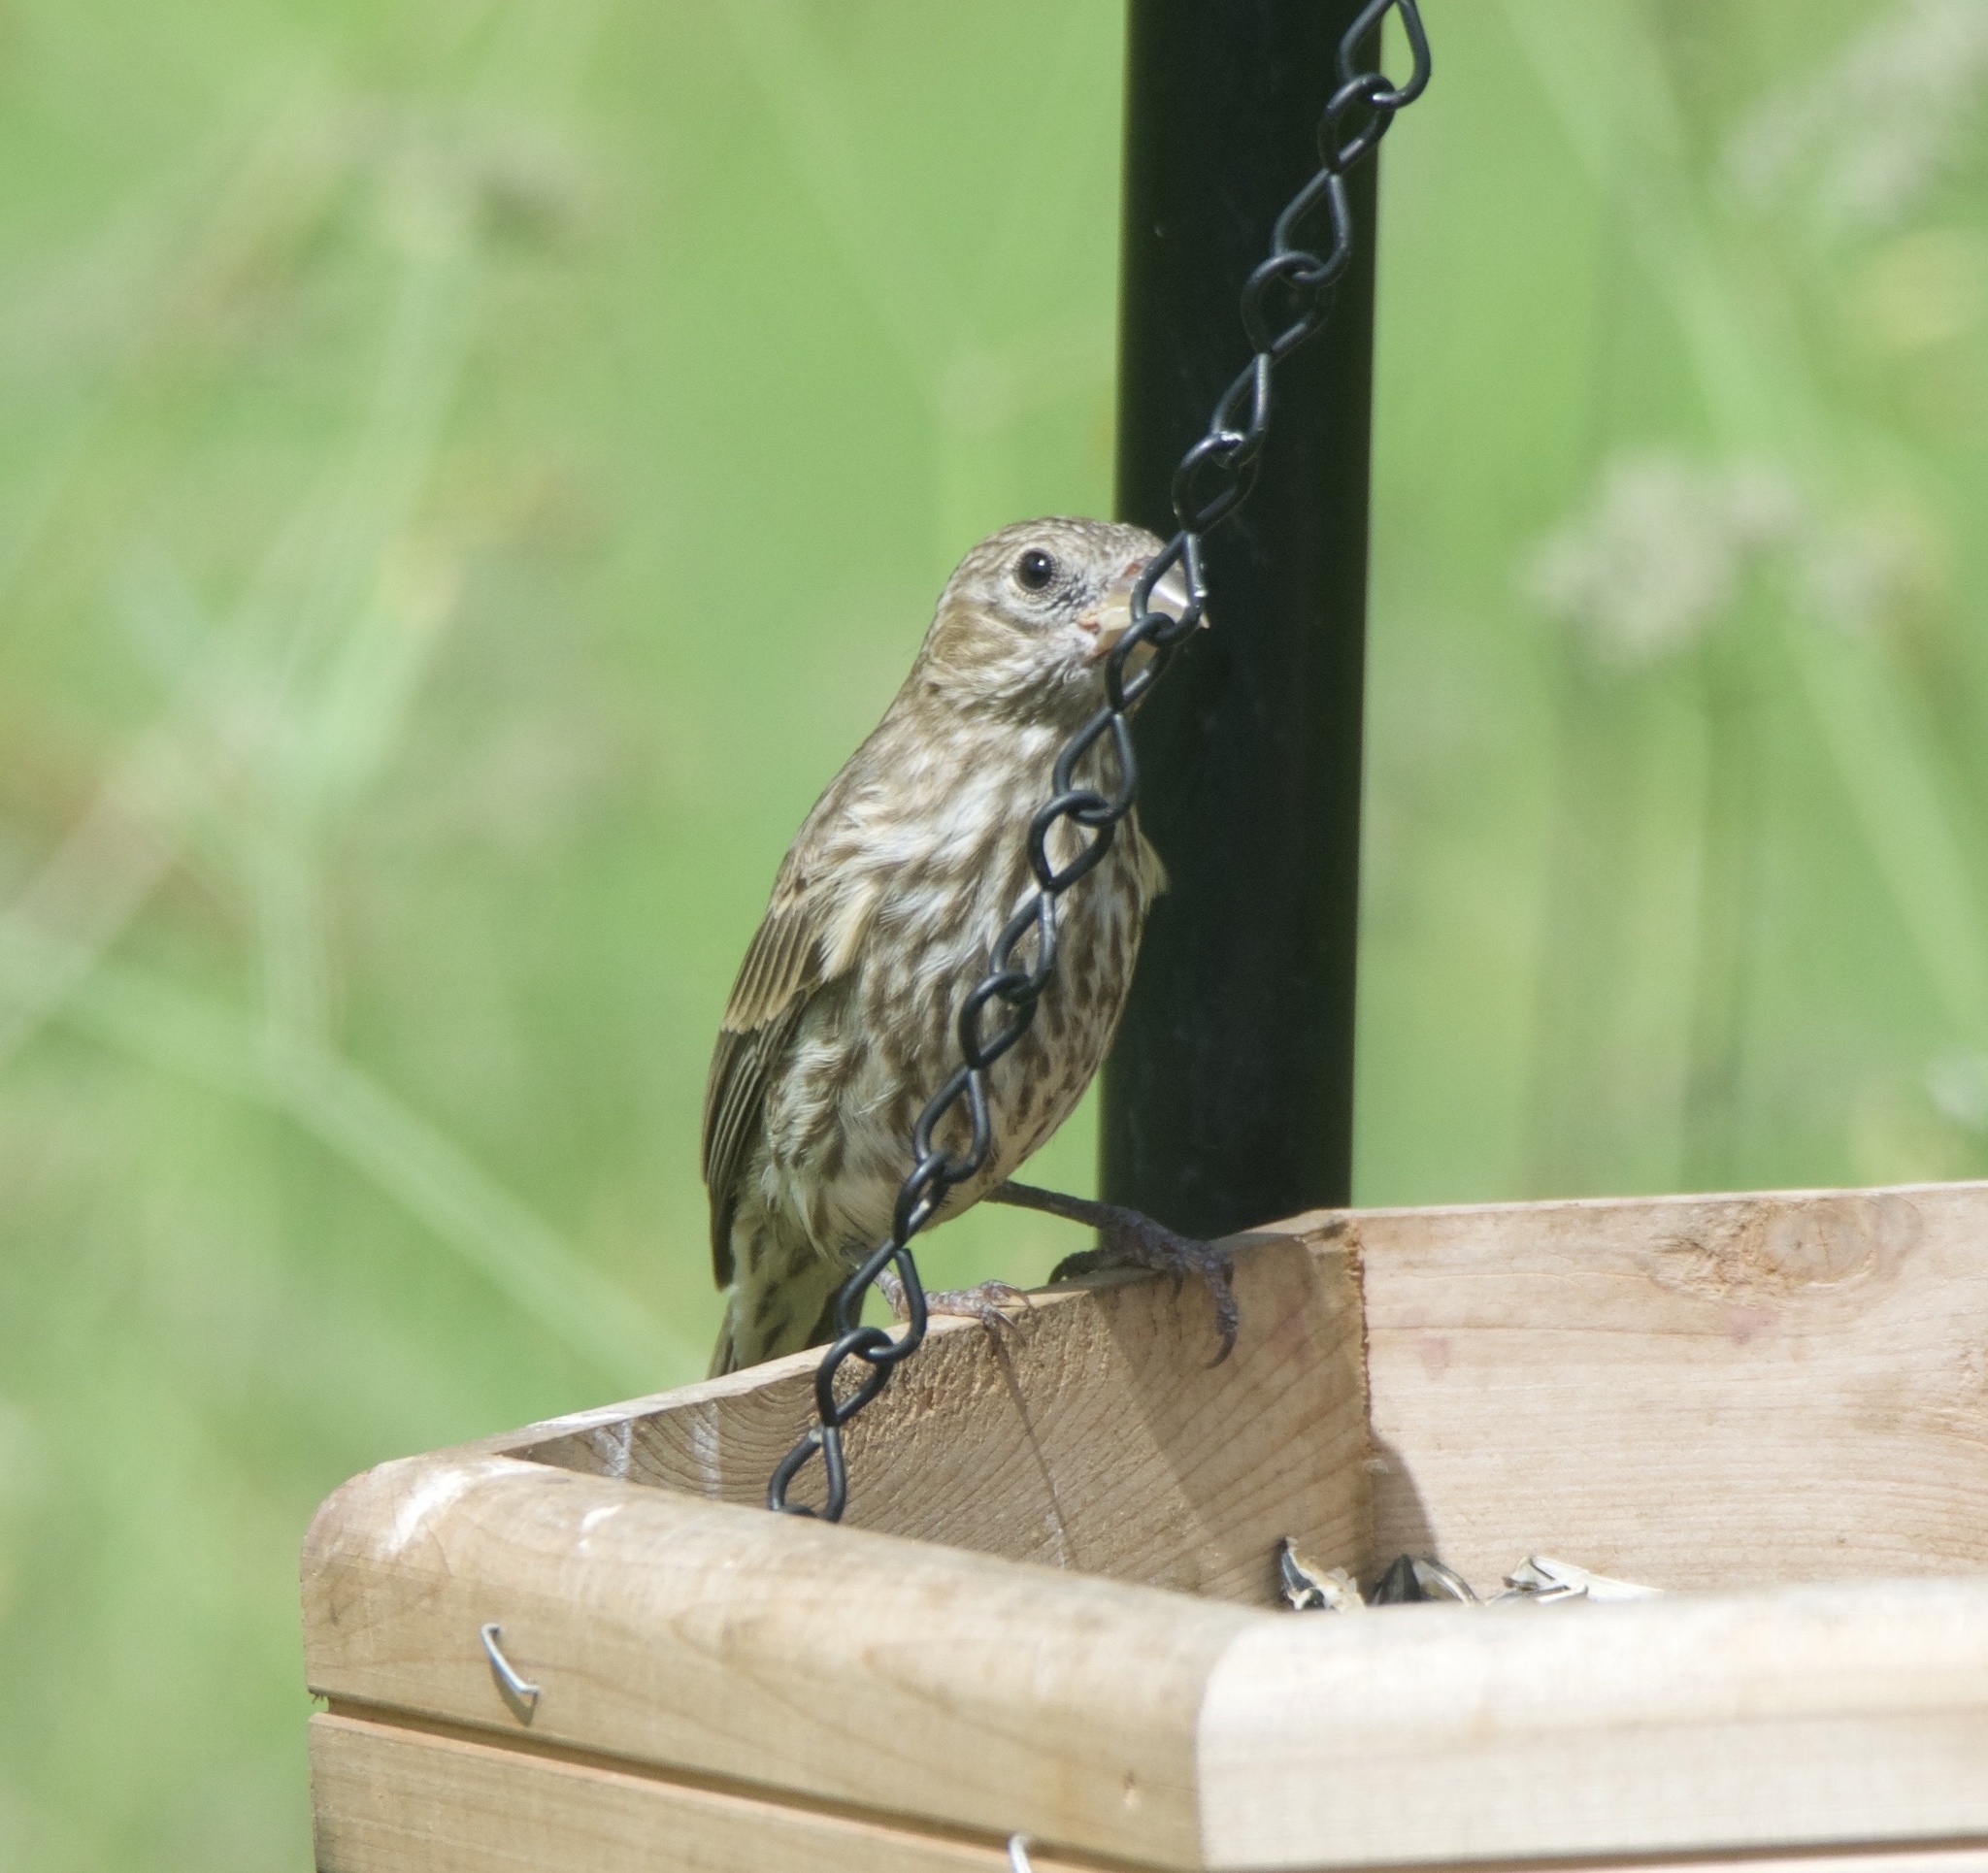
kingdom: Animalia
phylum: Chordata
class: Aves
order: Passeriformes
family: Fringillidae
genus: Haemorhous
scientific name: Haemorhous mexicanus
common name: House finch
